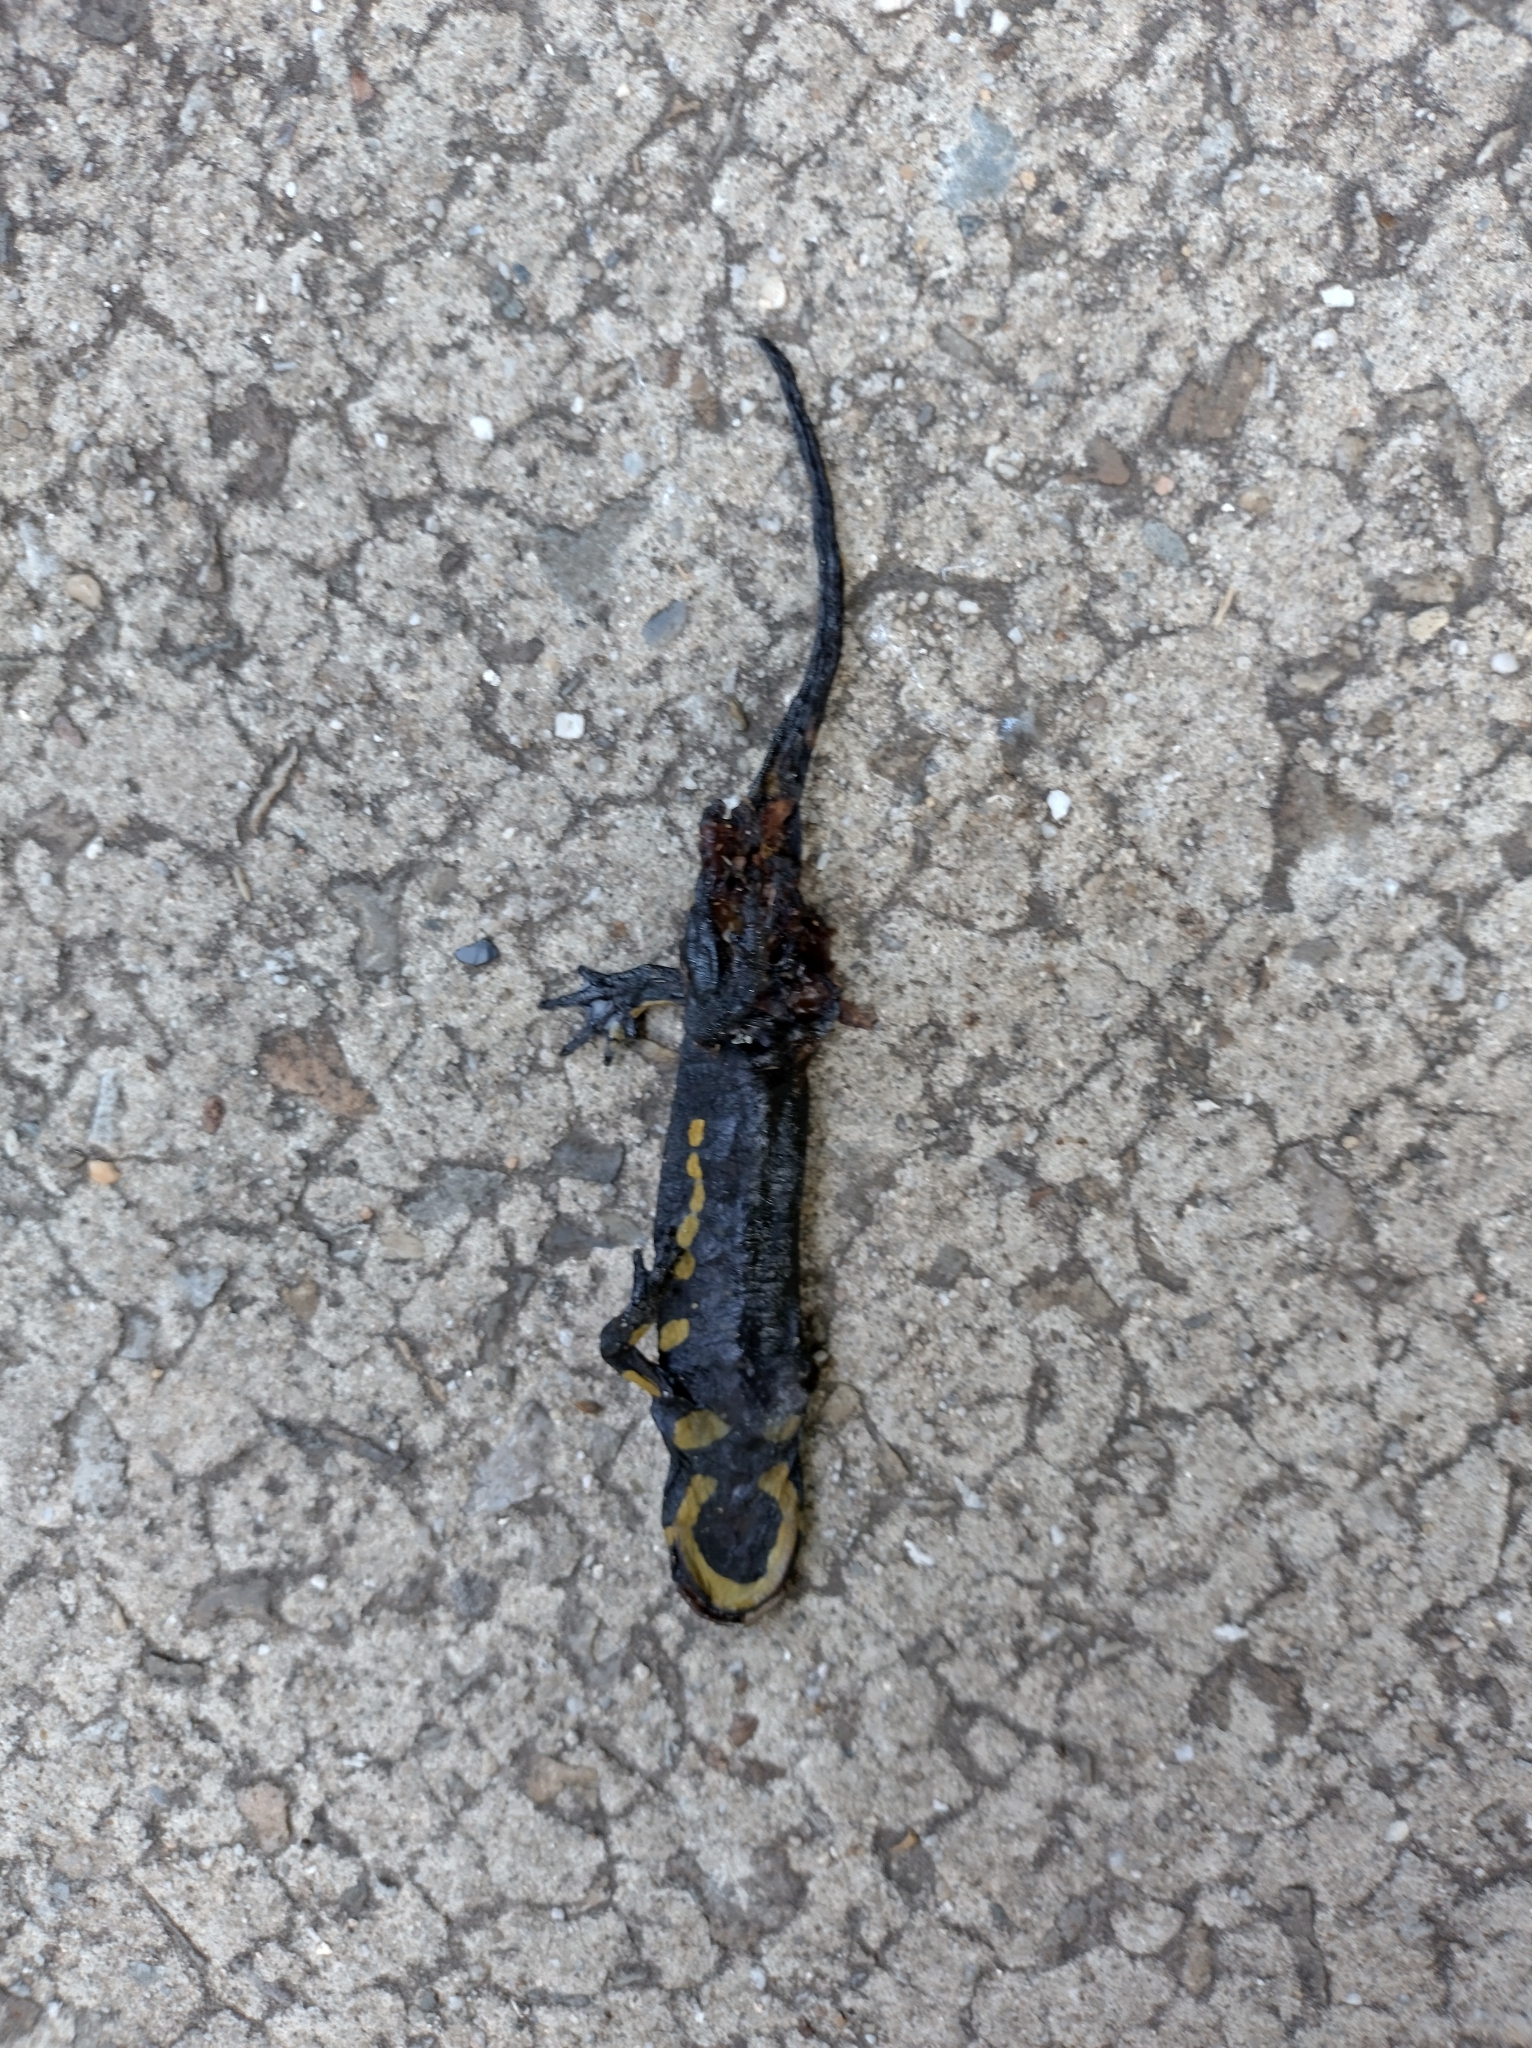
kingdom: Animalia
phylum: Chordata
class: Amphibia
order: Caudata
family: Salamandridae
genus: Salamandra
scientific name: Salamandra salamandra
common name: Fire salamander
